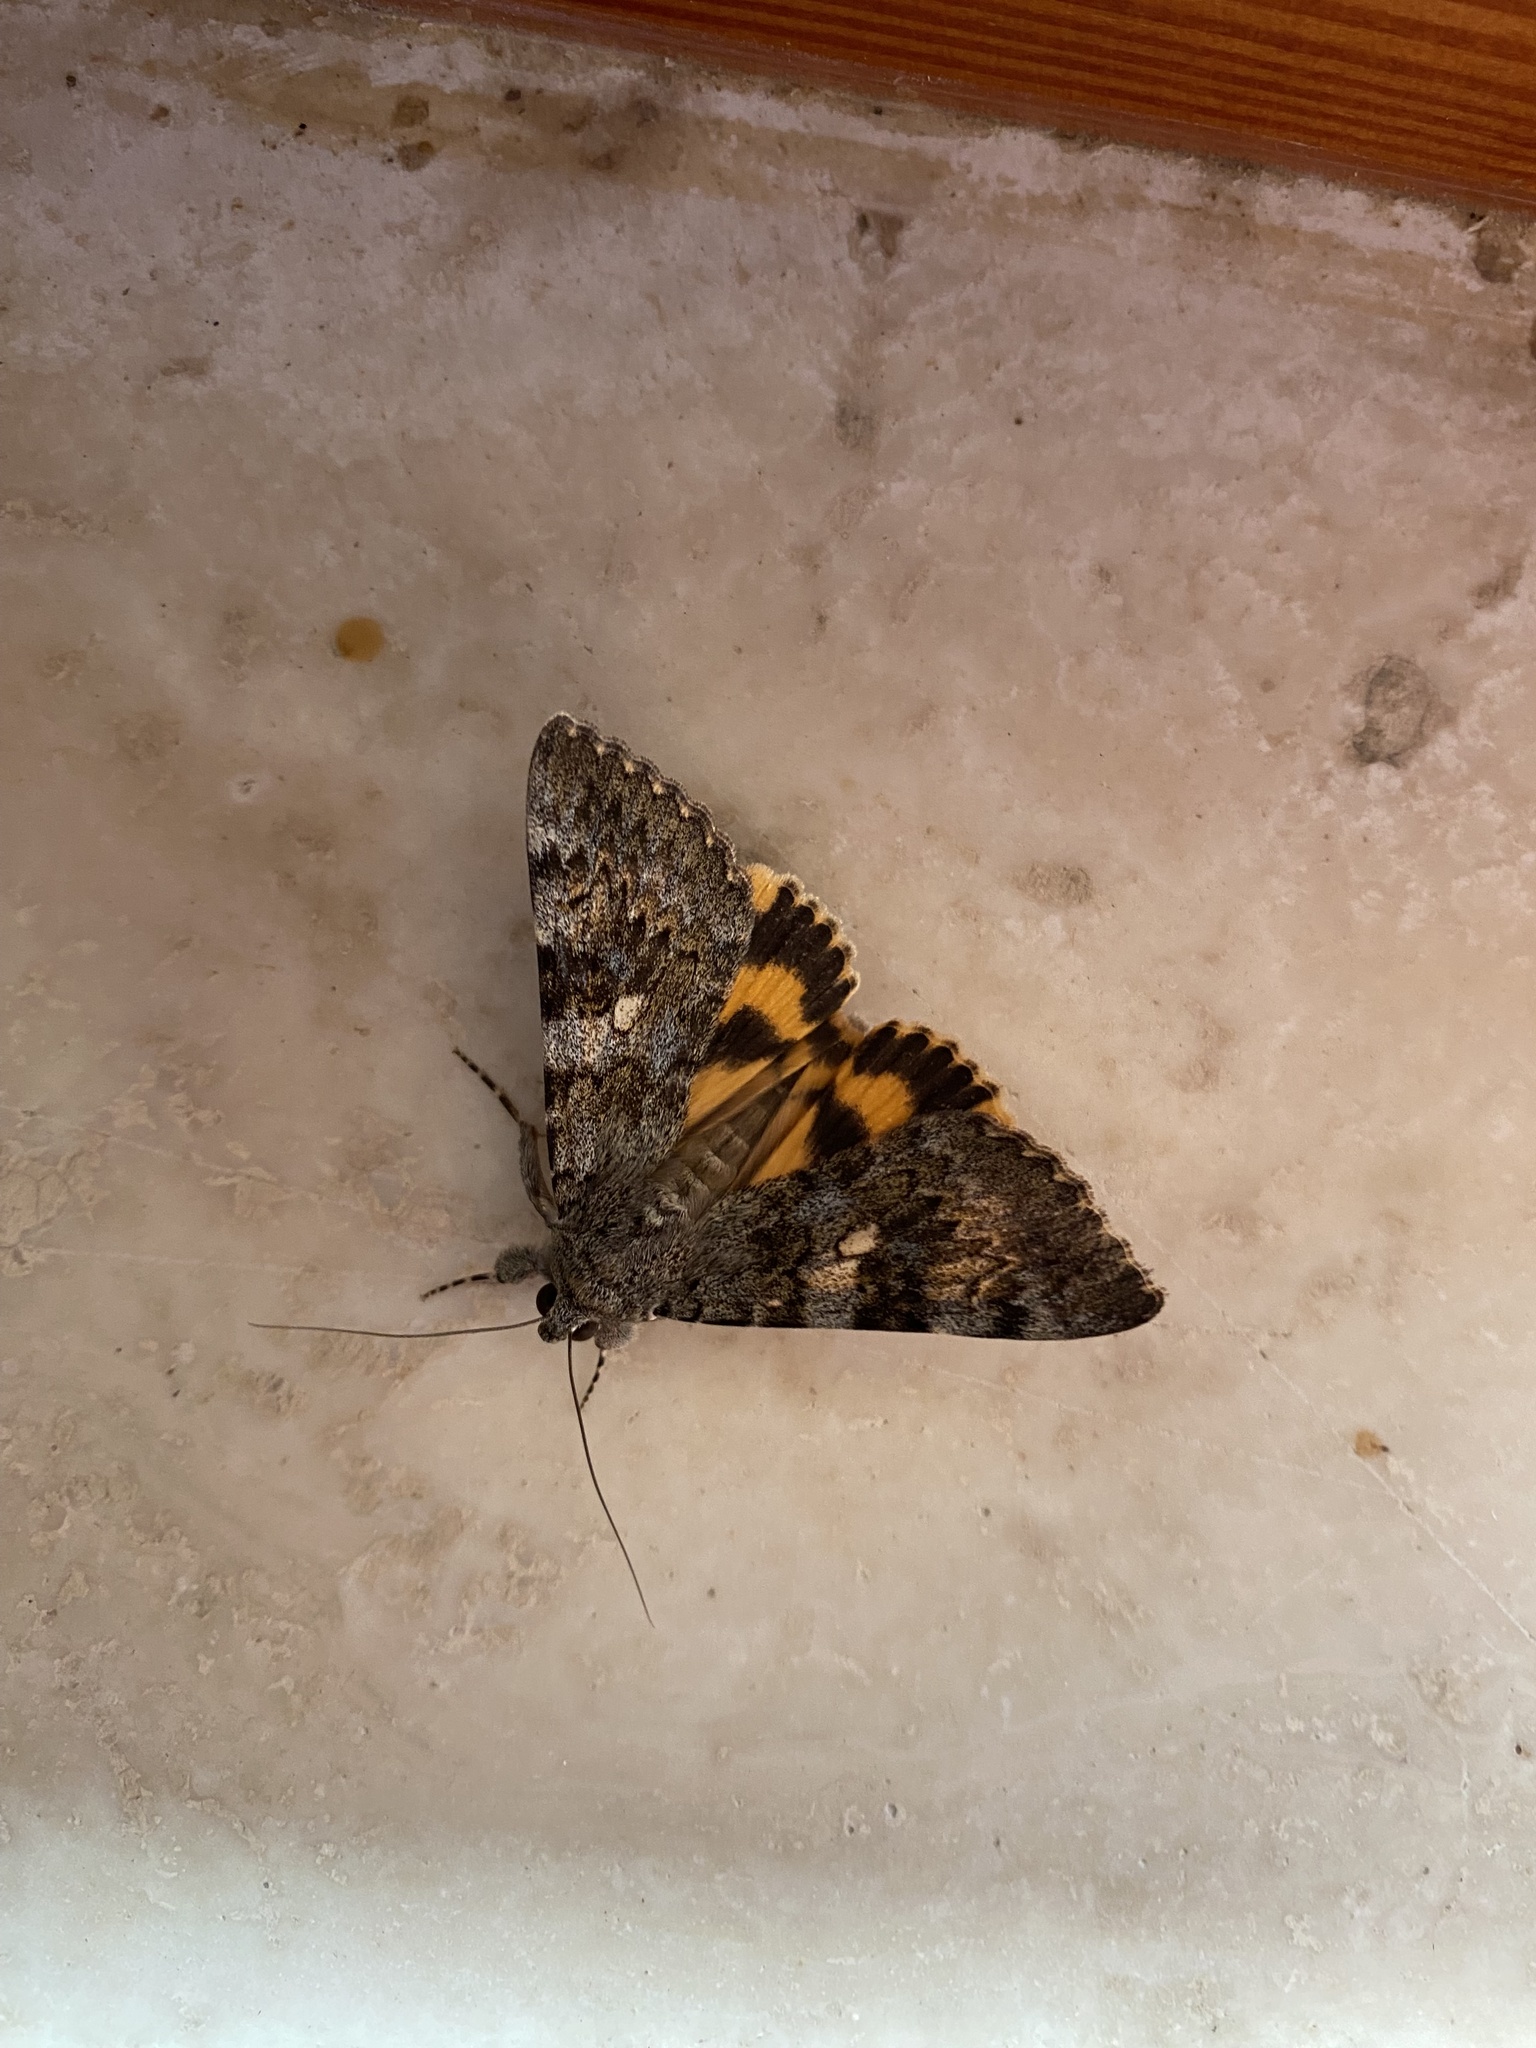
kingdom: Animalia
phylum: Arthropoda
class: Insecta
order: Lepidoptera
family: Erebidae
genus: Catocala
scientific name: Catocala nymphaea
